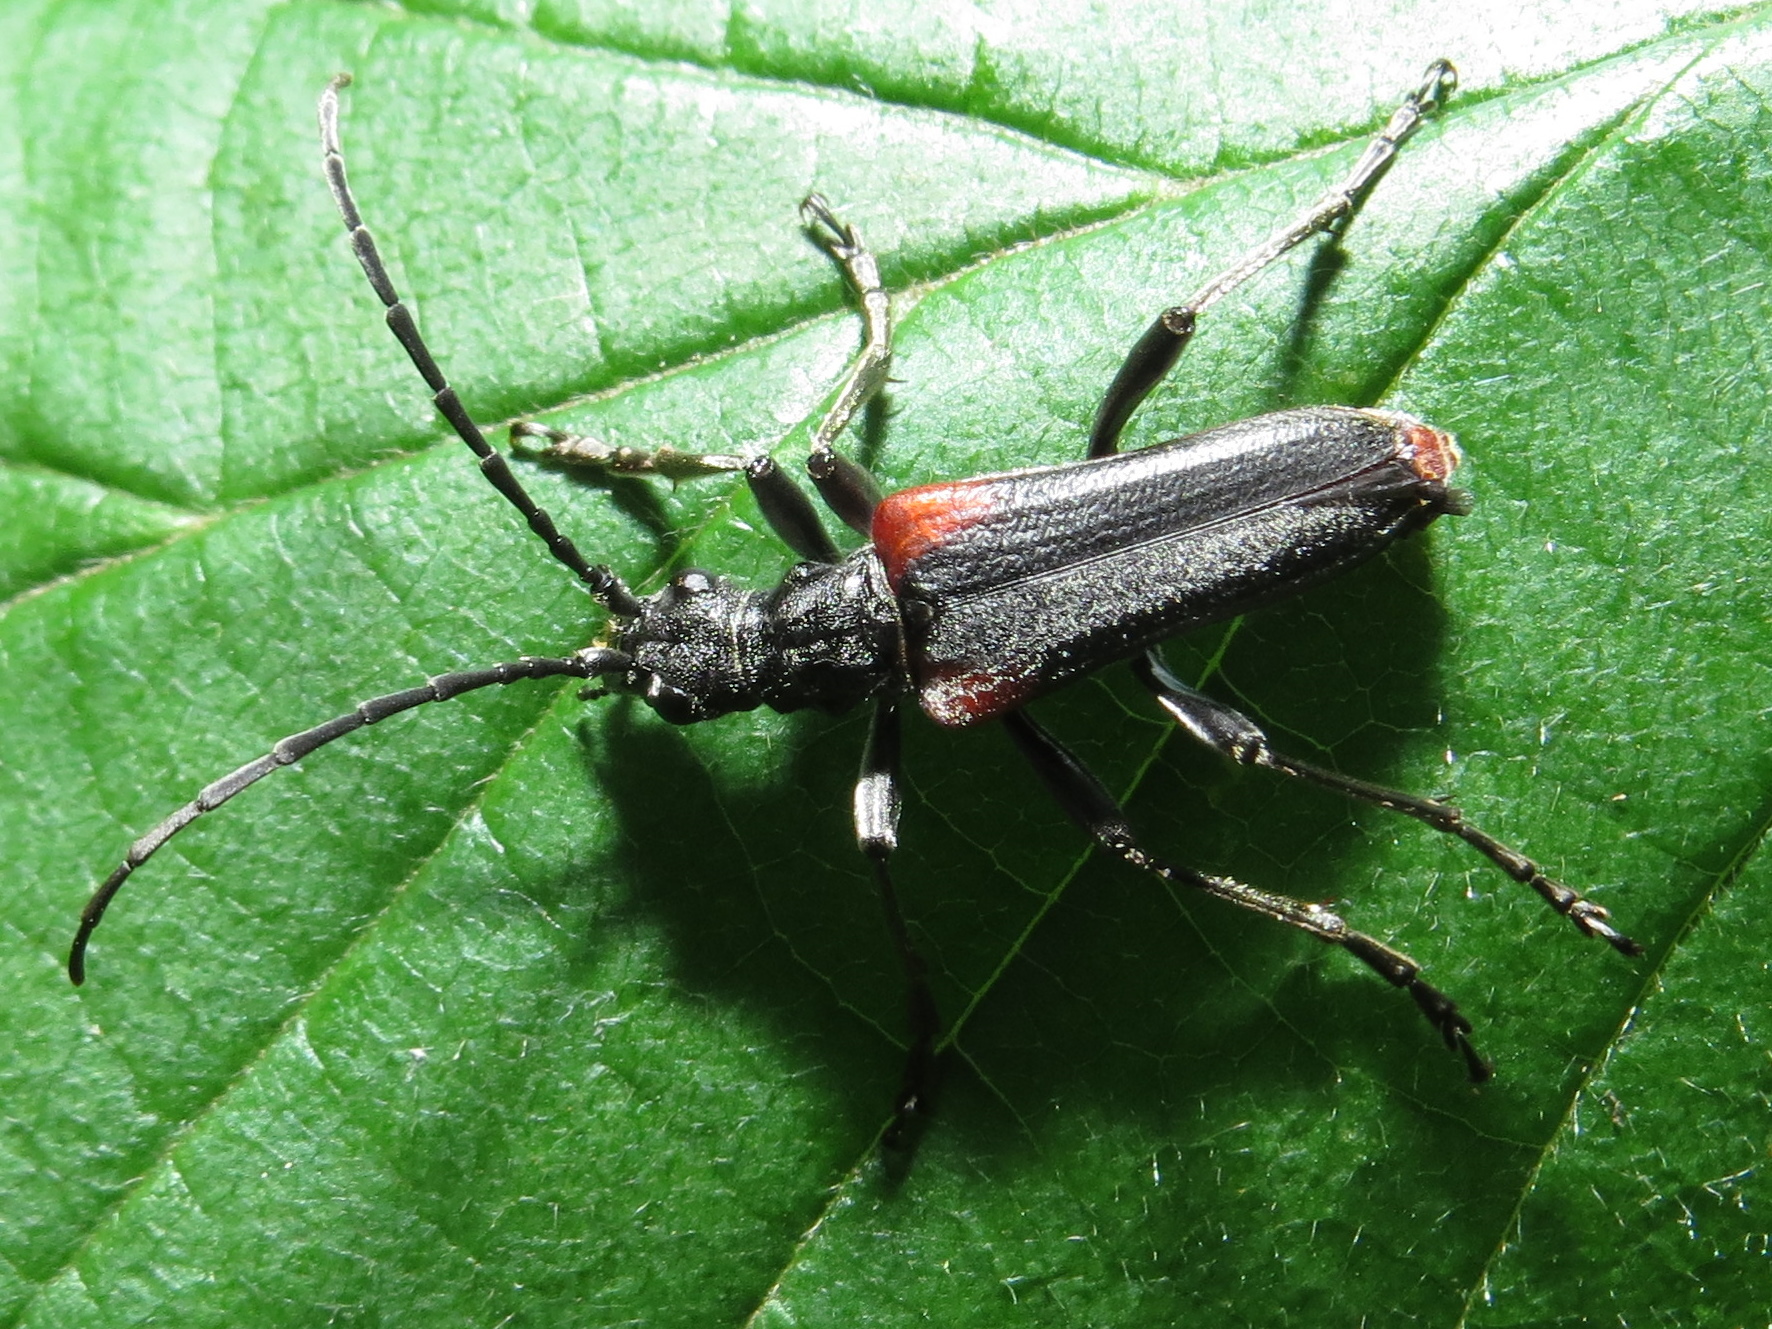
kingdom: Animalia
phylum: Arthropoda
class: Insecta
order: Coleoptera
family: Cerambycidae
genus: Stenocorus
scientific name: Stenocorus quercus
